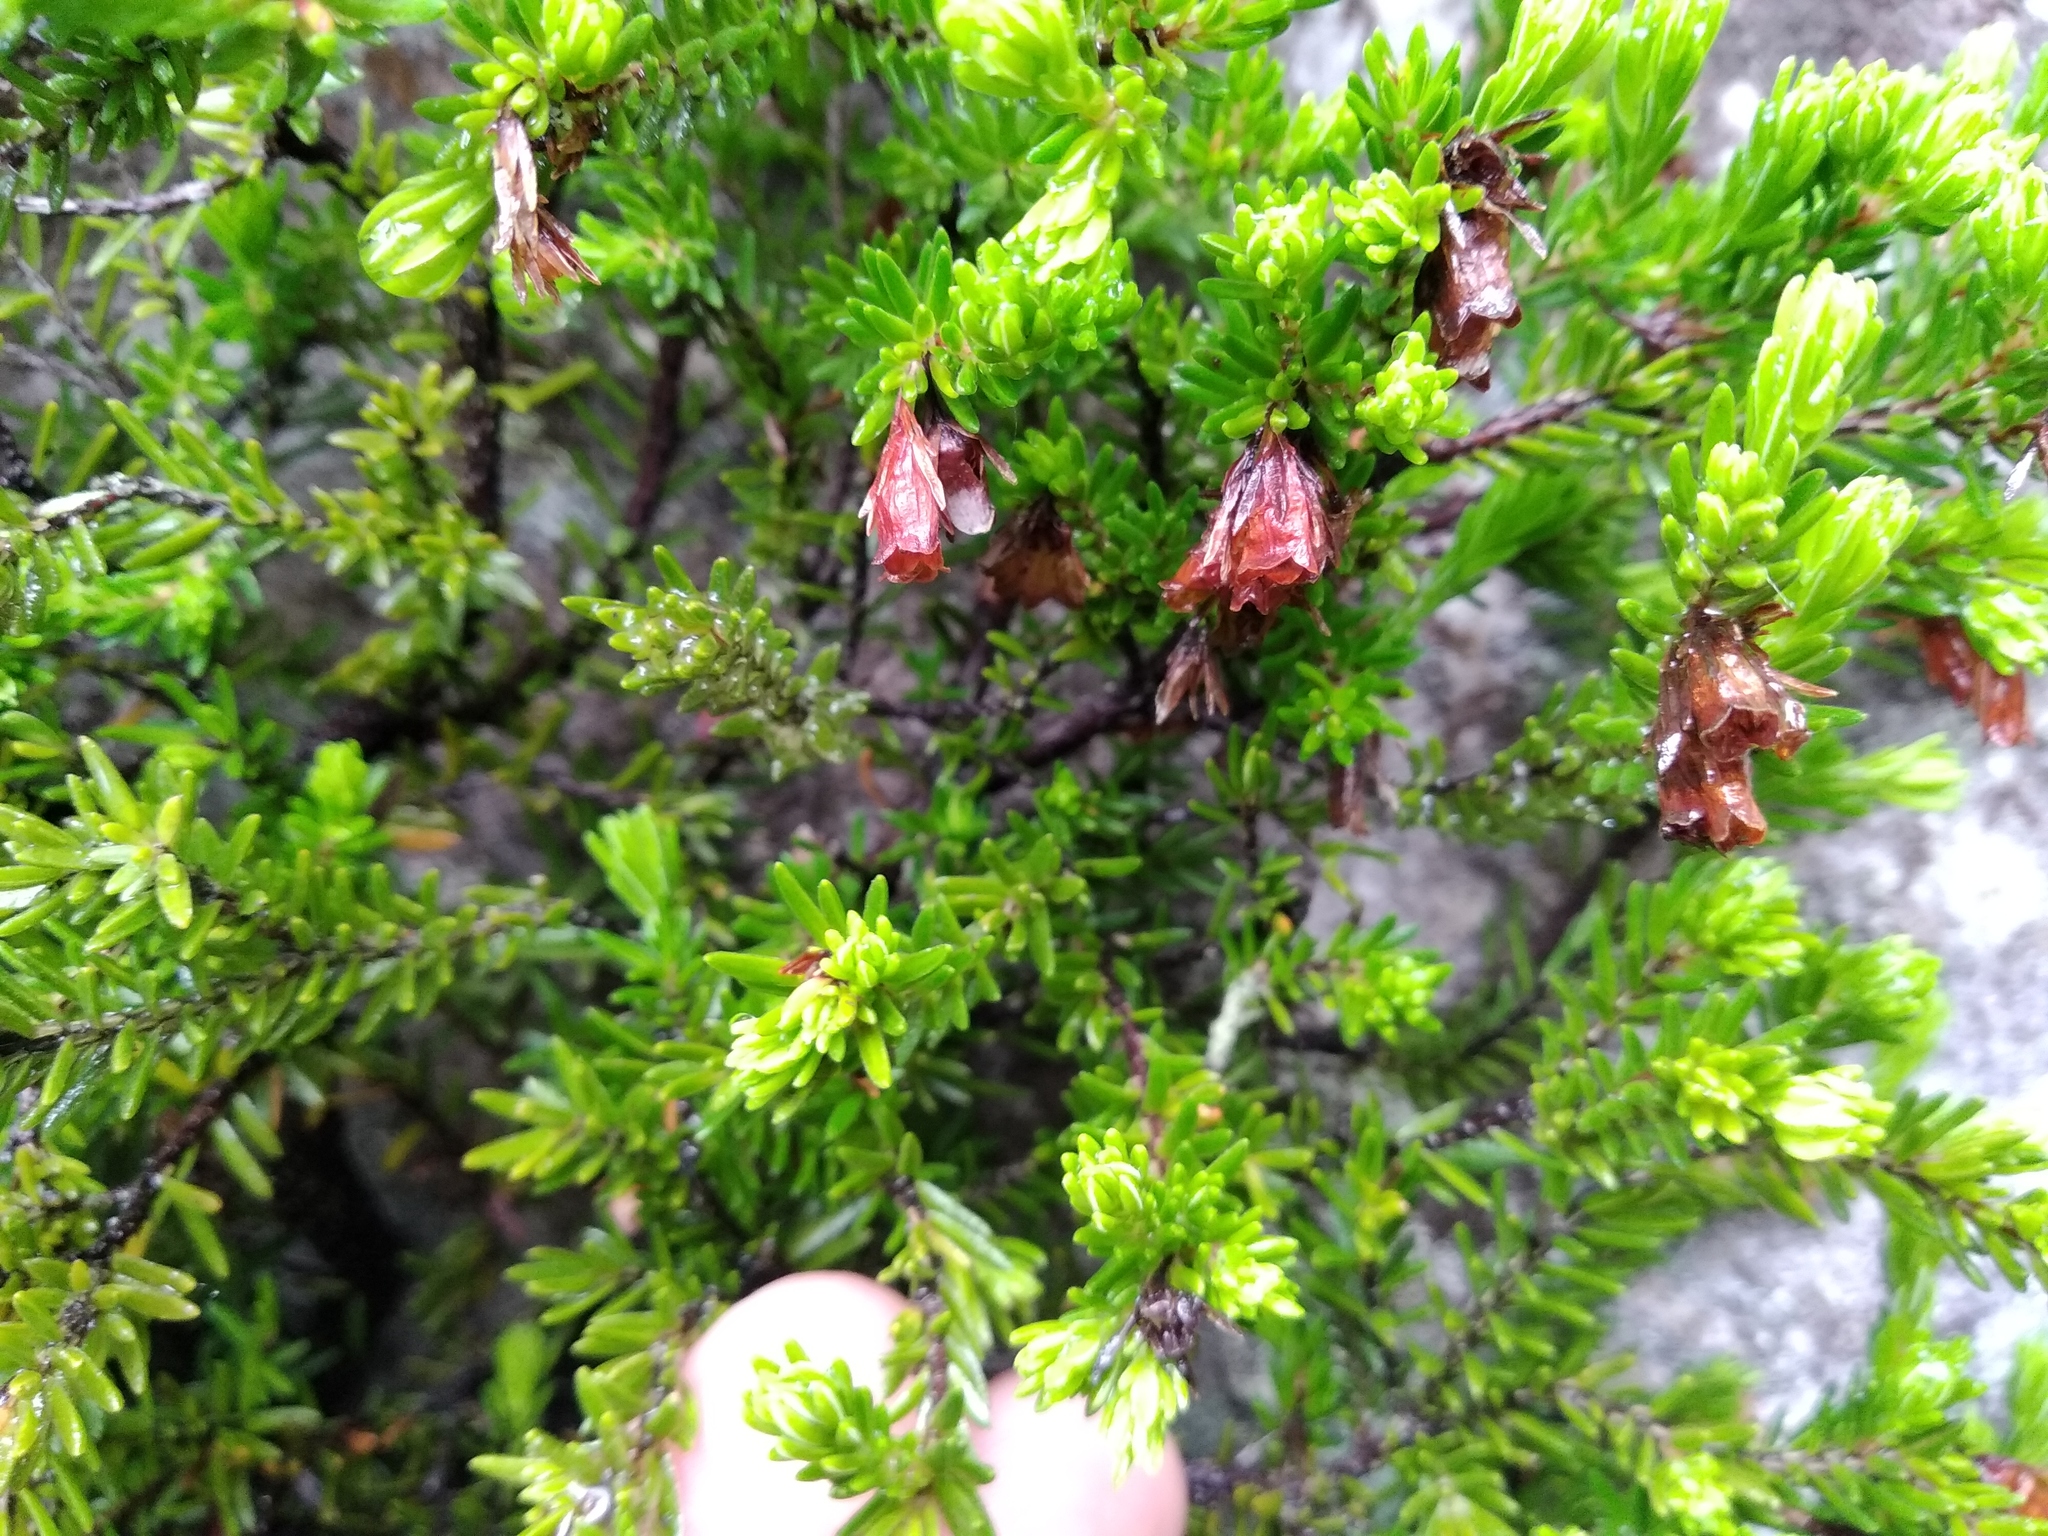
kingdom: Plantae
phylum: Tracheophyta
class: Magnoliopsida
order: Ericales
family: Ericaceae
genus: Erica
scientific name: Erica depressa
